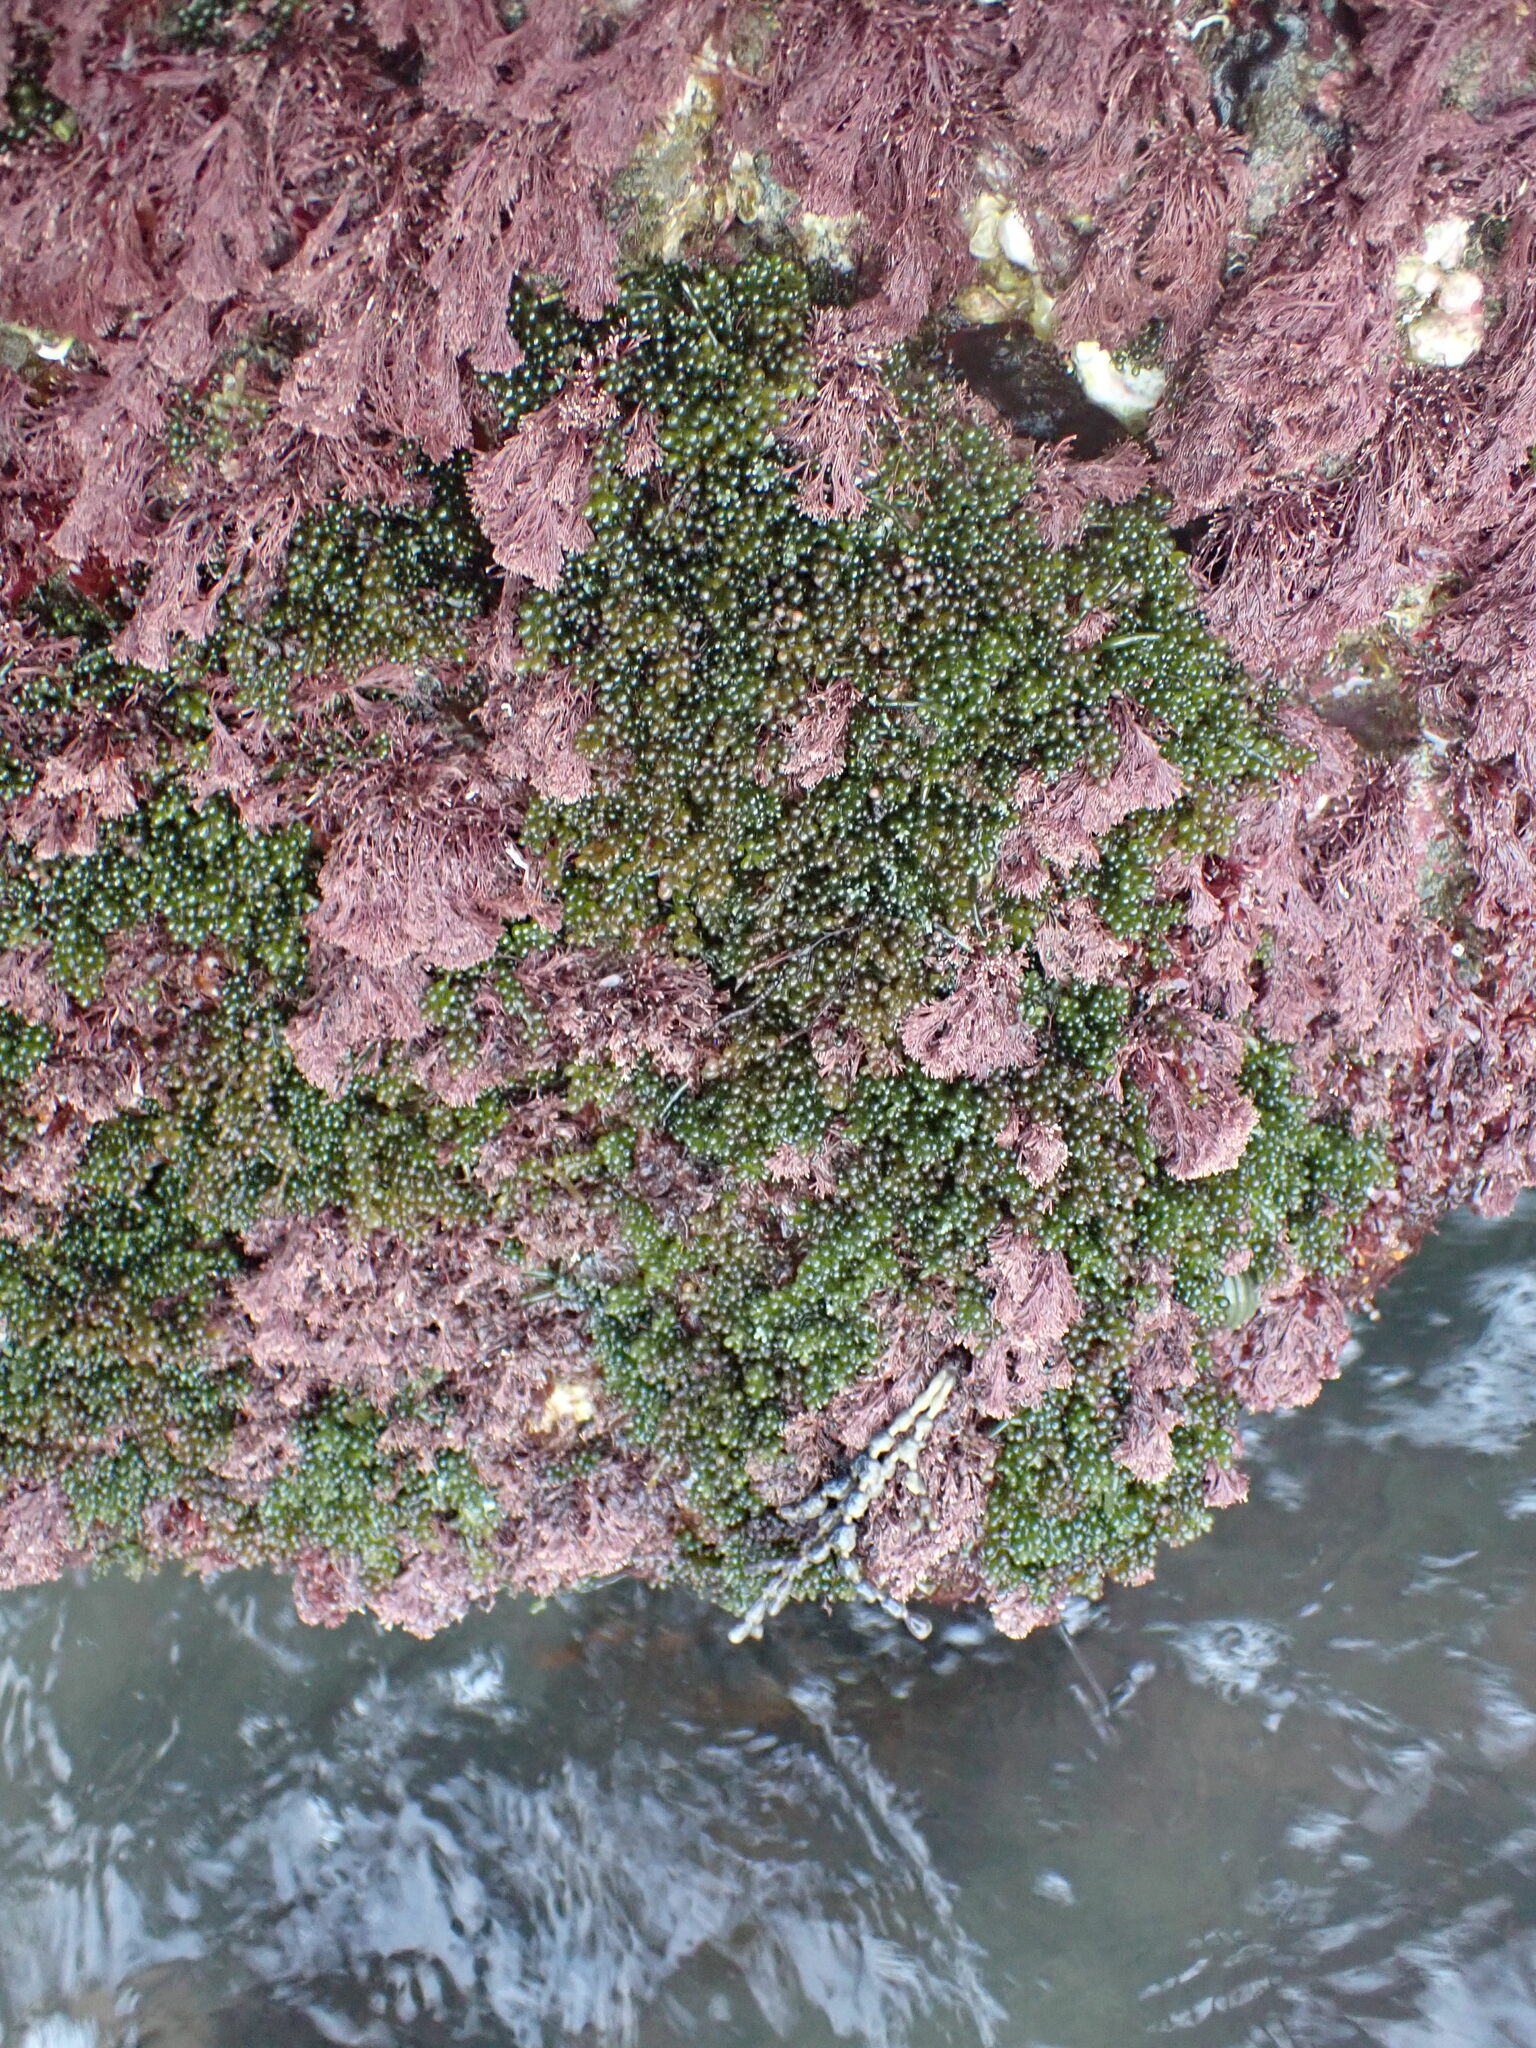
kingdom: Plantae
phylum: Chlorophyta
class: Ulvophyceae
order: Bryopsidales
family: Caulerpaceae
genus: Caulerpa
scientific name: Caulerpa geminata
